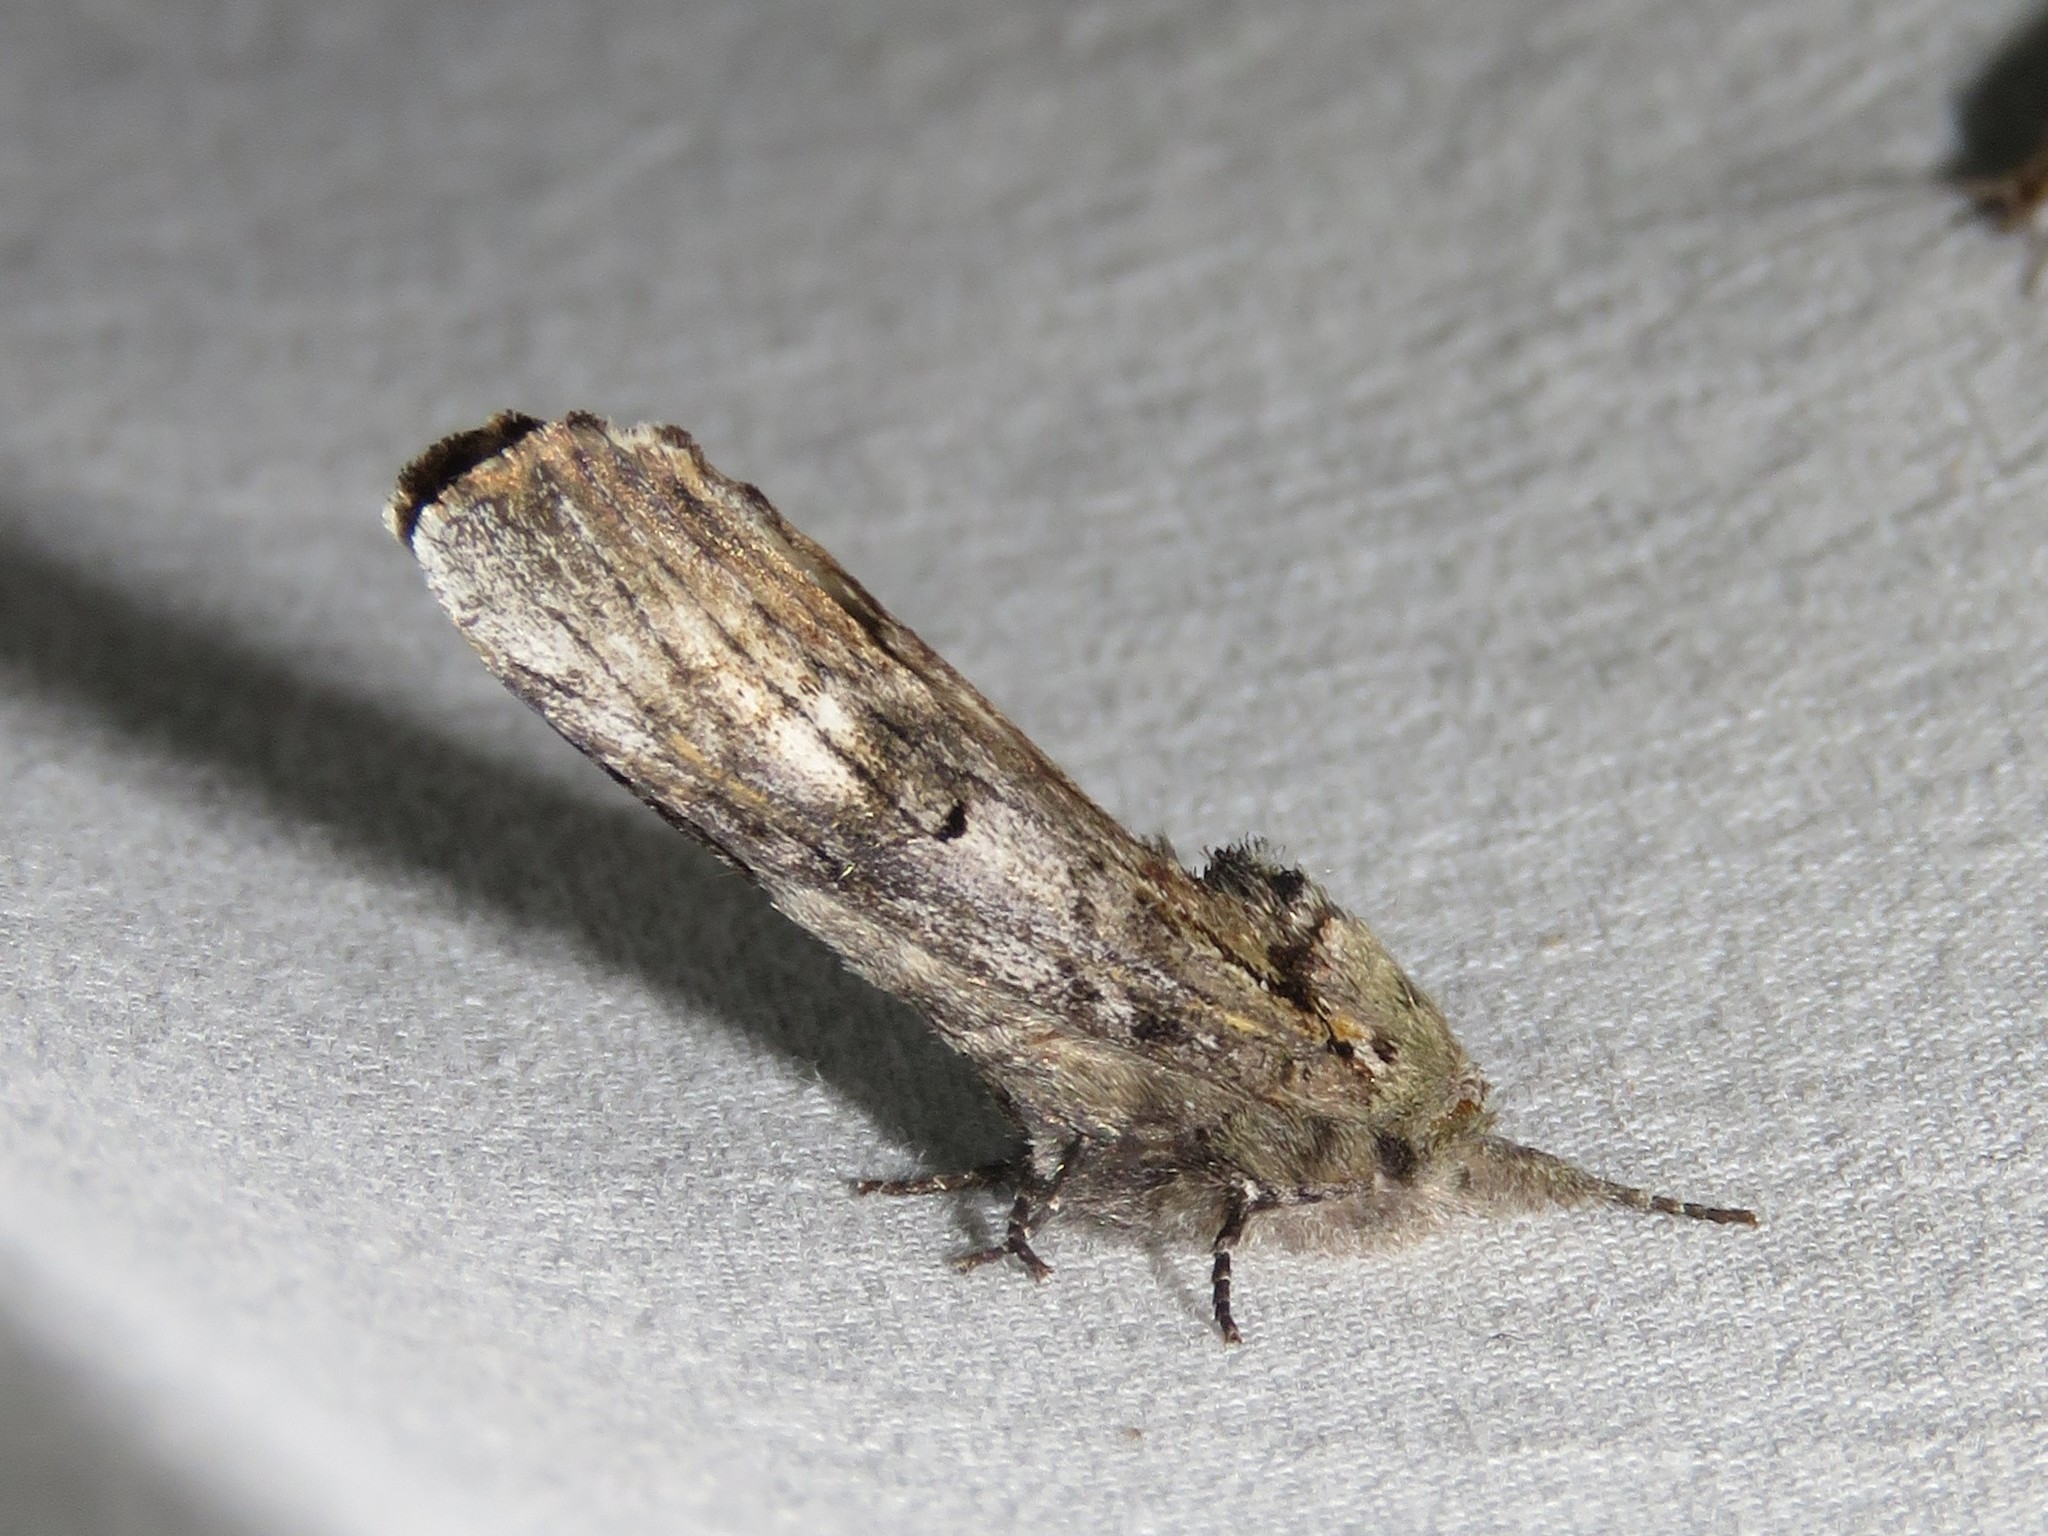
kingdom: Animalia
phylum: Arthropoda
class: Insecta
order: Lepidoptera
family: Notodontidae
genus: Schizura
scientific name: Schizura
